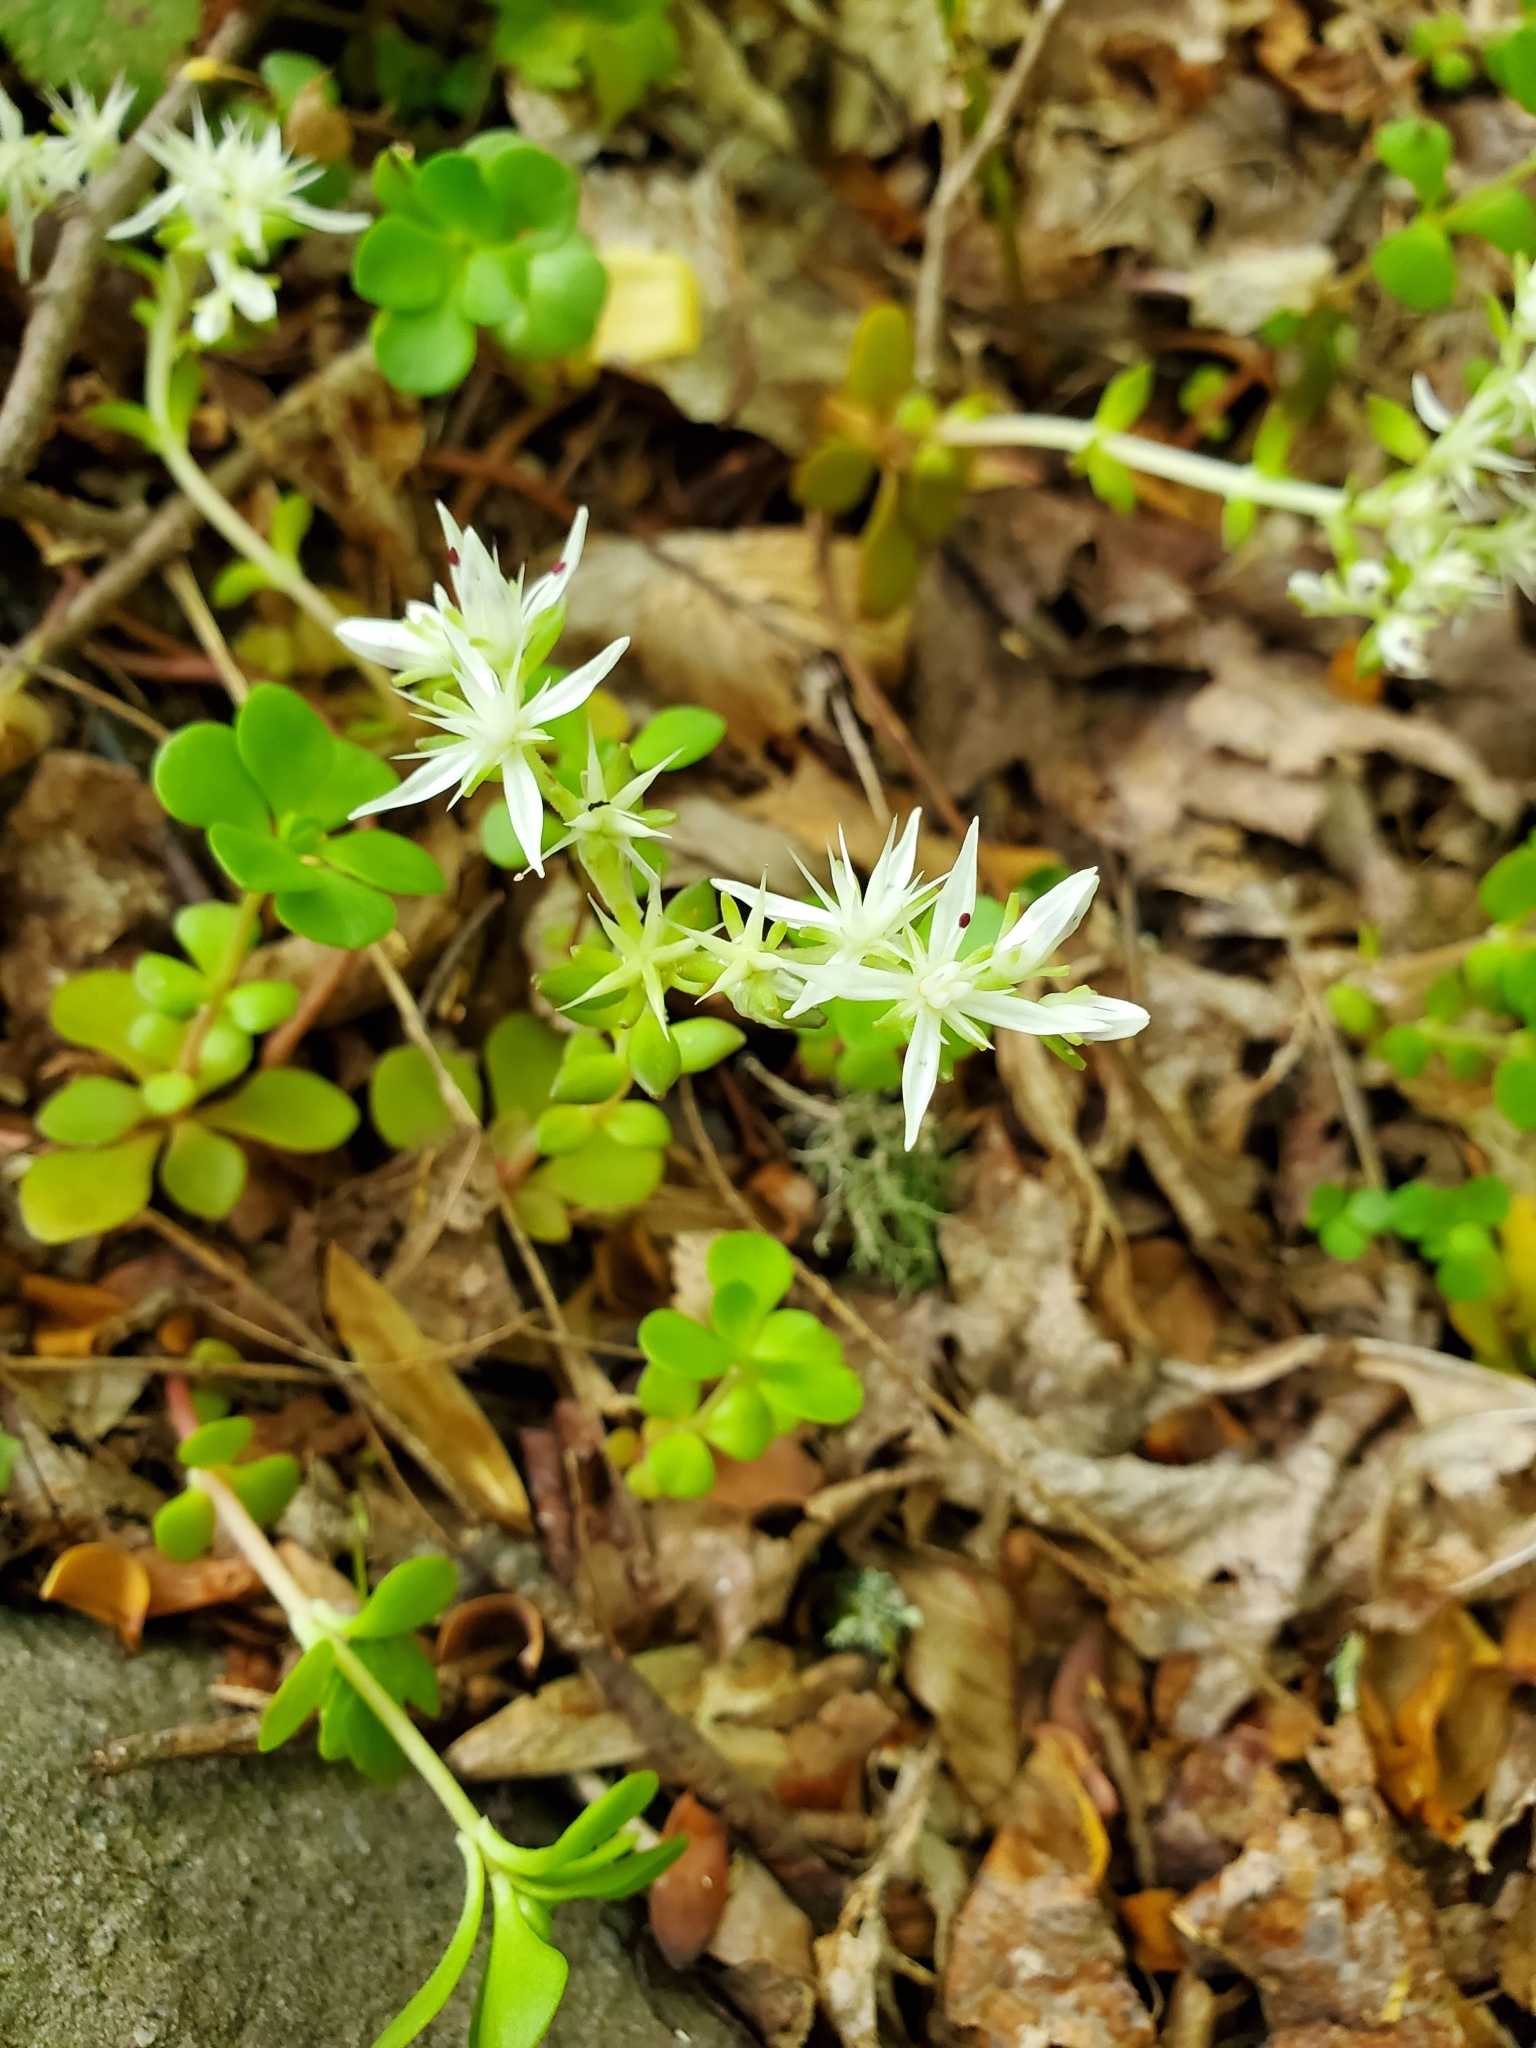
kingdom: Plantae
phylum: Tracheophyta
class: Magnoliopsida
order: Saxifragales
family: Crassulaceae
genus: Sedum
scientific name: Sedum ternatum
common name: Wild stonecrop
